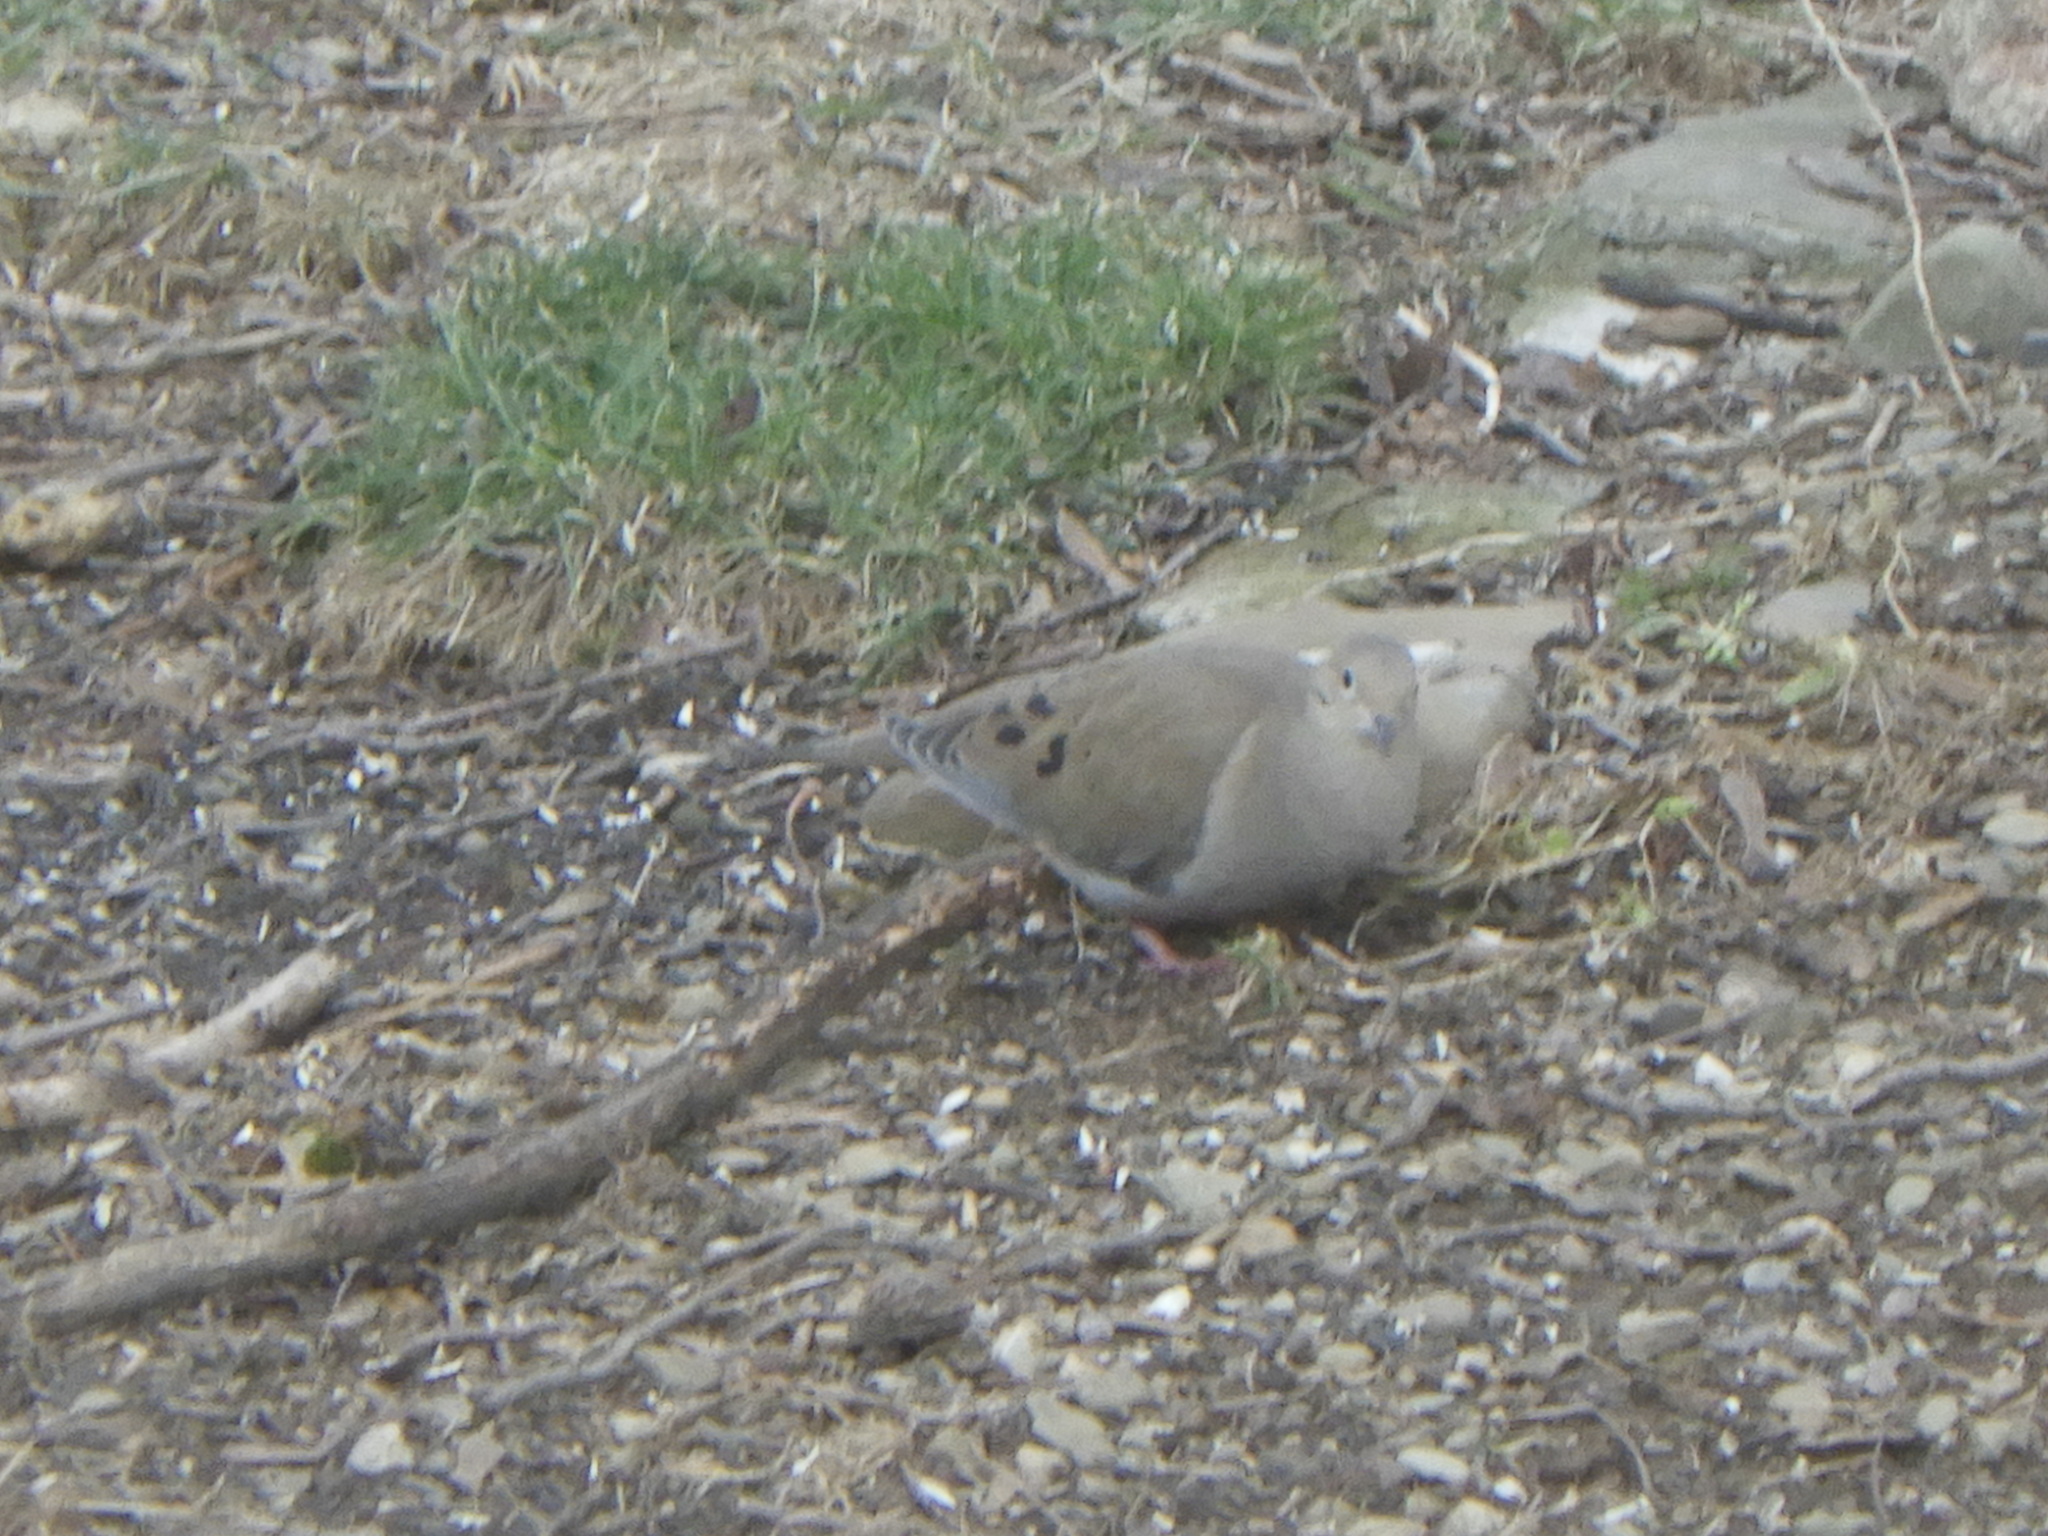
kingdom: Animalia
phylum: Chordata
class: Aves
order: Columbiformes
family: Columbidae
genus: Zenaida
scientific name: Zenaida macroura
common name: Mourning dove
